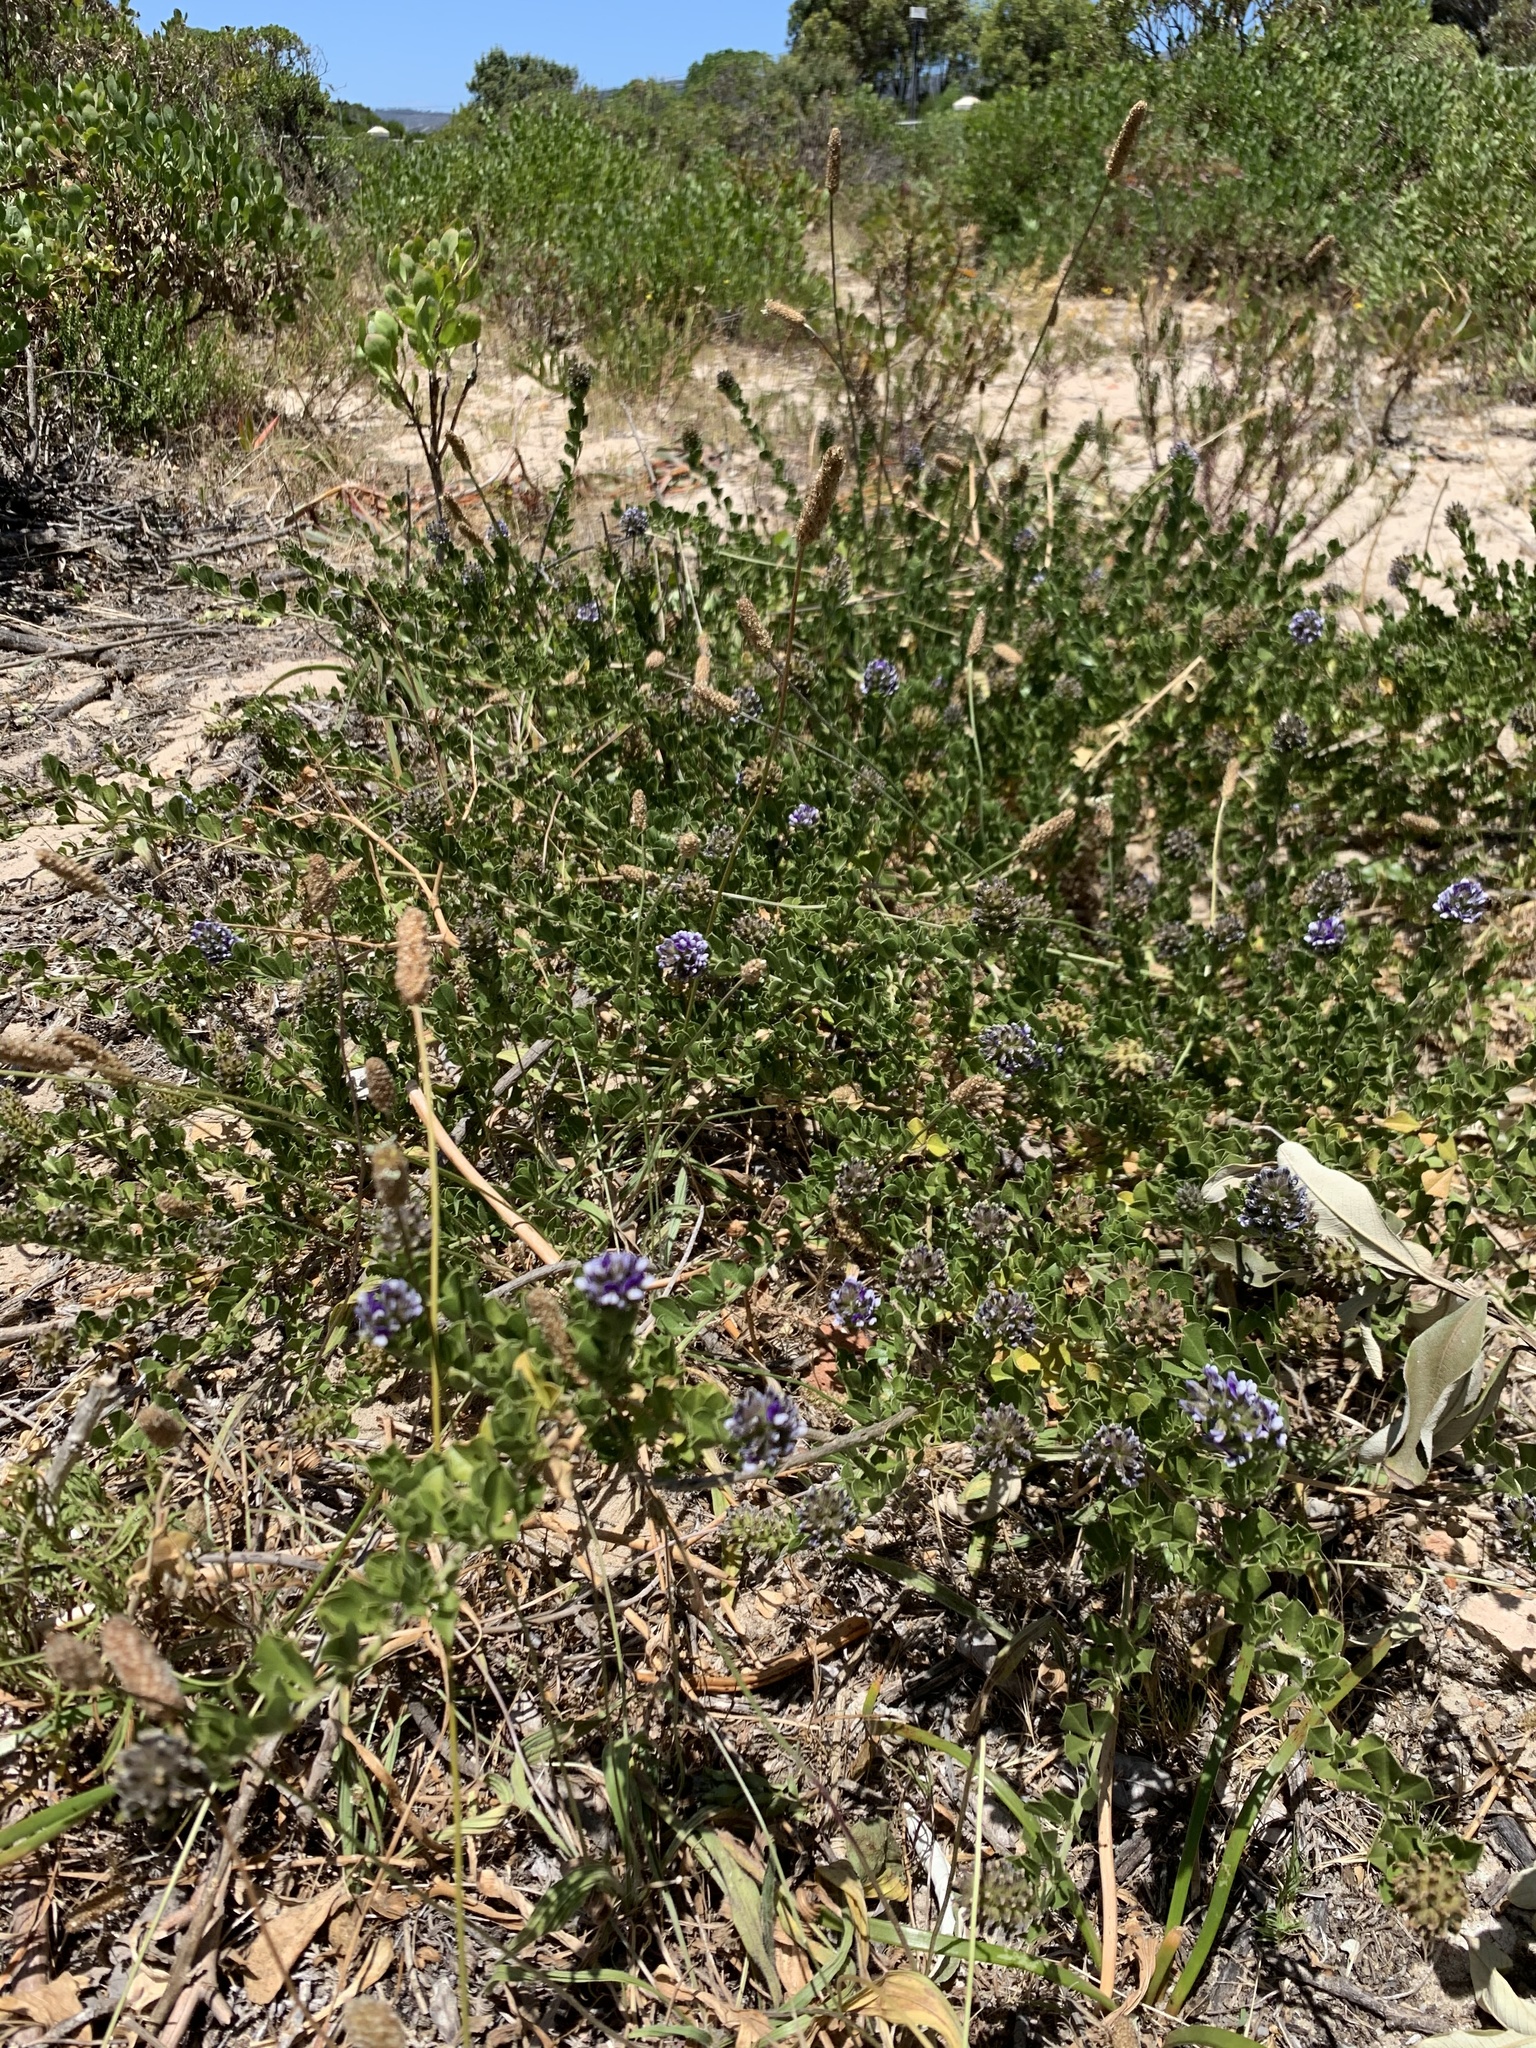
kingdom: Plantae
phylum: Tracheophyta
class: Magnoliopsida
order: Fabales
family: Fabaceae
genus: Psoralea
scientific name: Psoralea bracteolata
